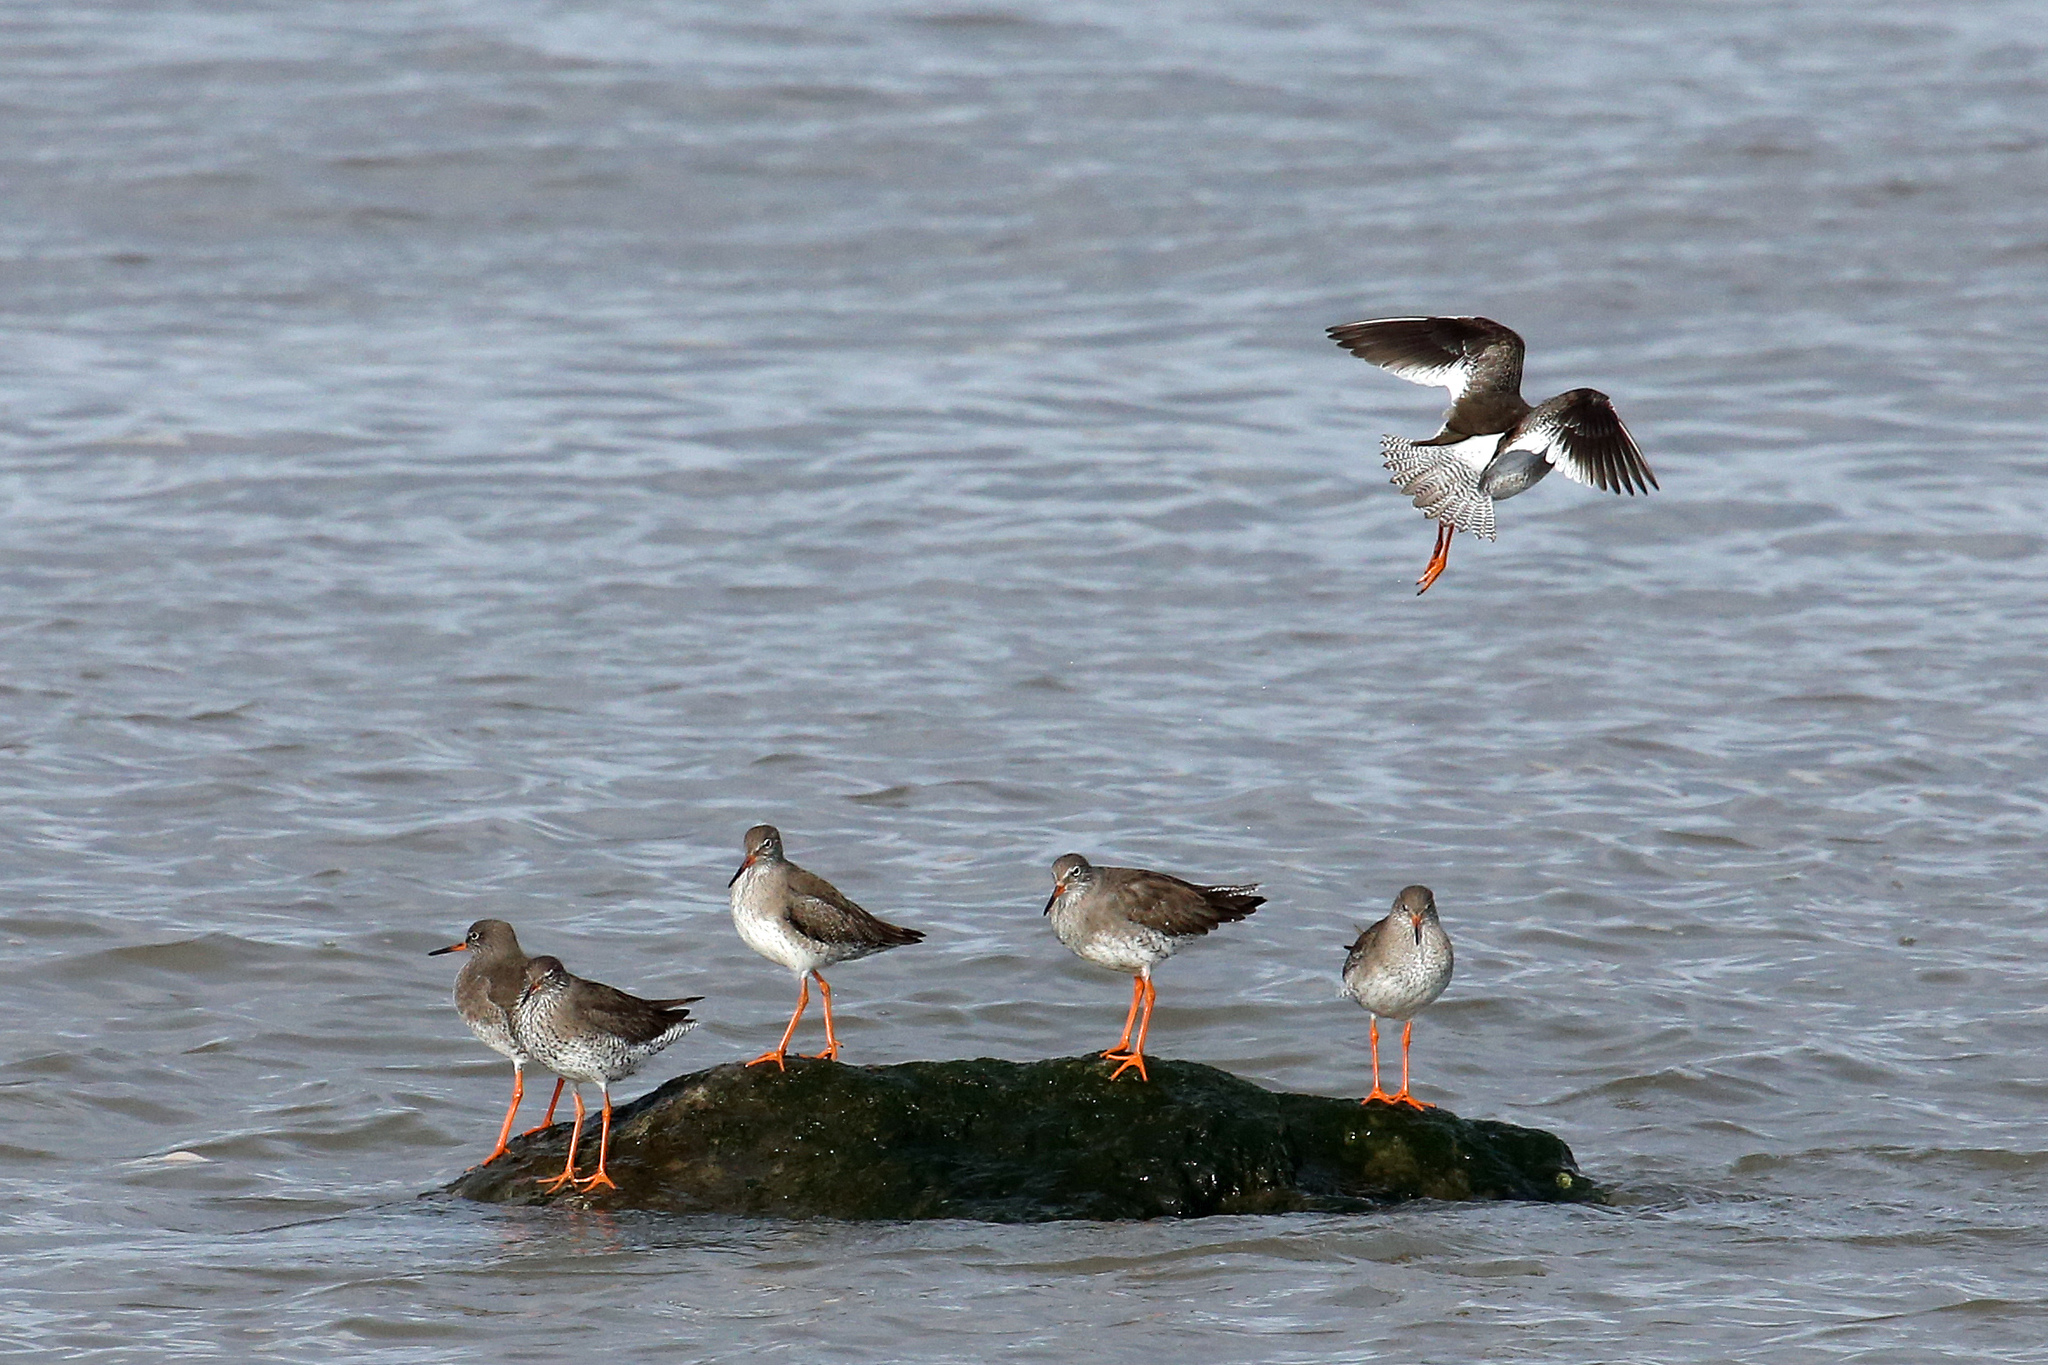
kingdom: Animalia
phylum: Chordata
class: Aves
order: Charadriiformes
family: Scolopacidae
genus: Tringa
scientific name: Tringa totanus
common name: Common redshank
